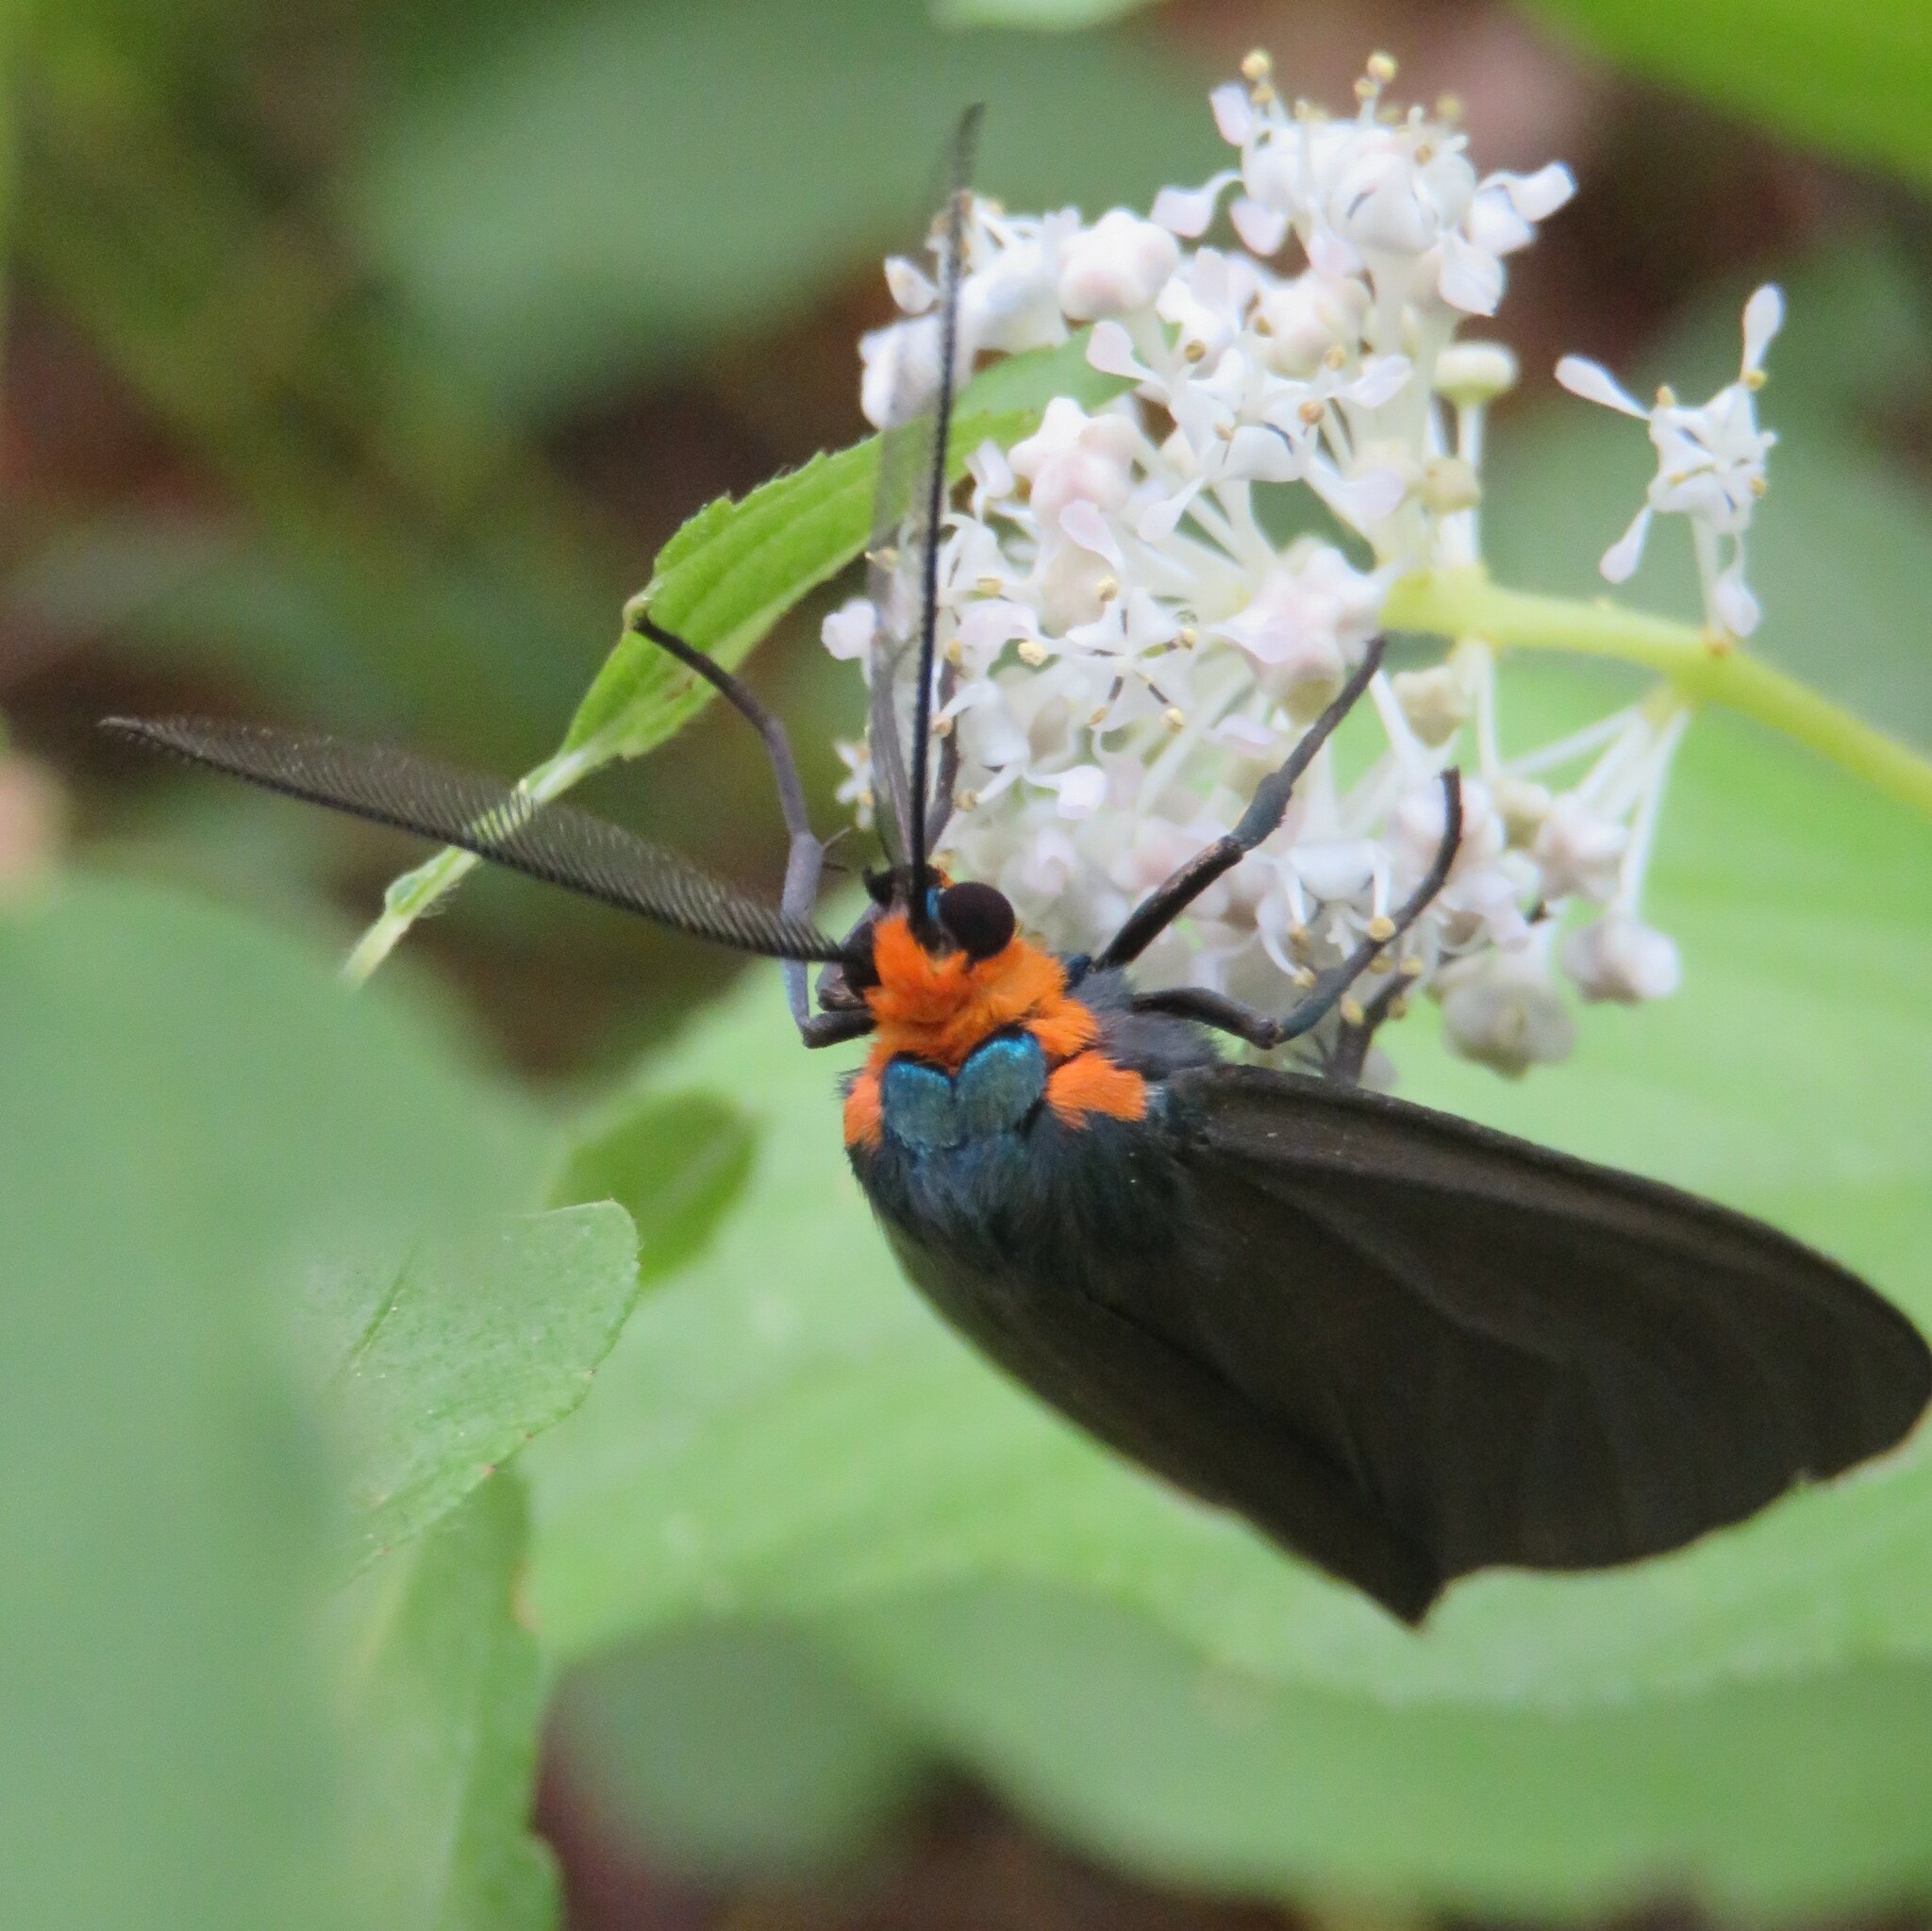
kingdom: Animalia
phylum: Arthropoda
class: Insecta
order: Lepidoptera
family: Erebidae
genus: Ctenucha
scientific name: Ctenucha virginica
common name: Virginia ctenucha moth
